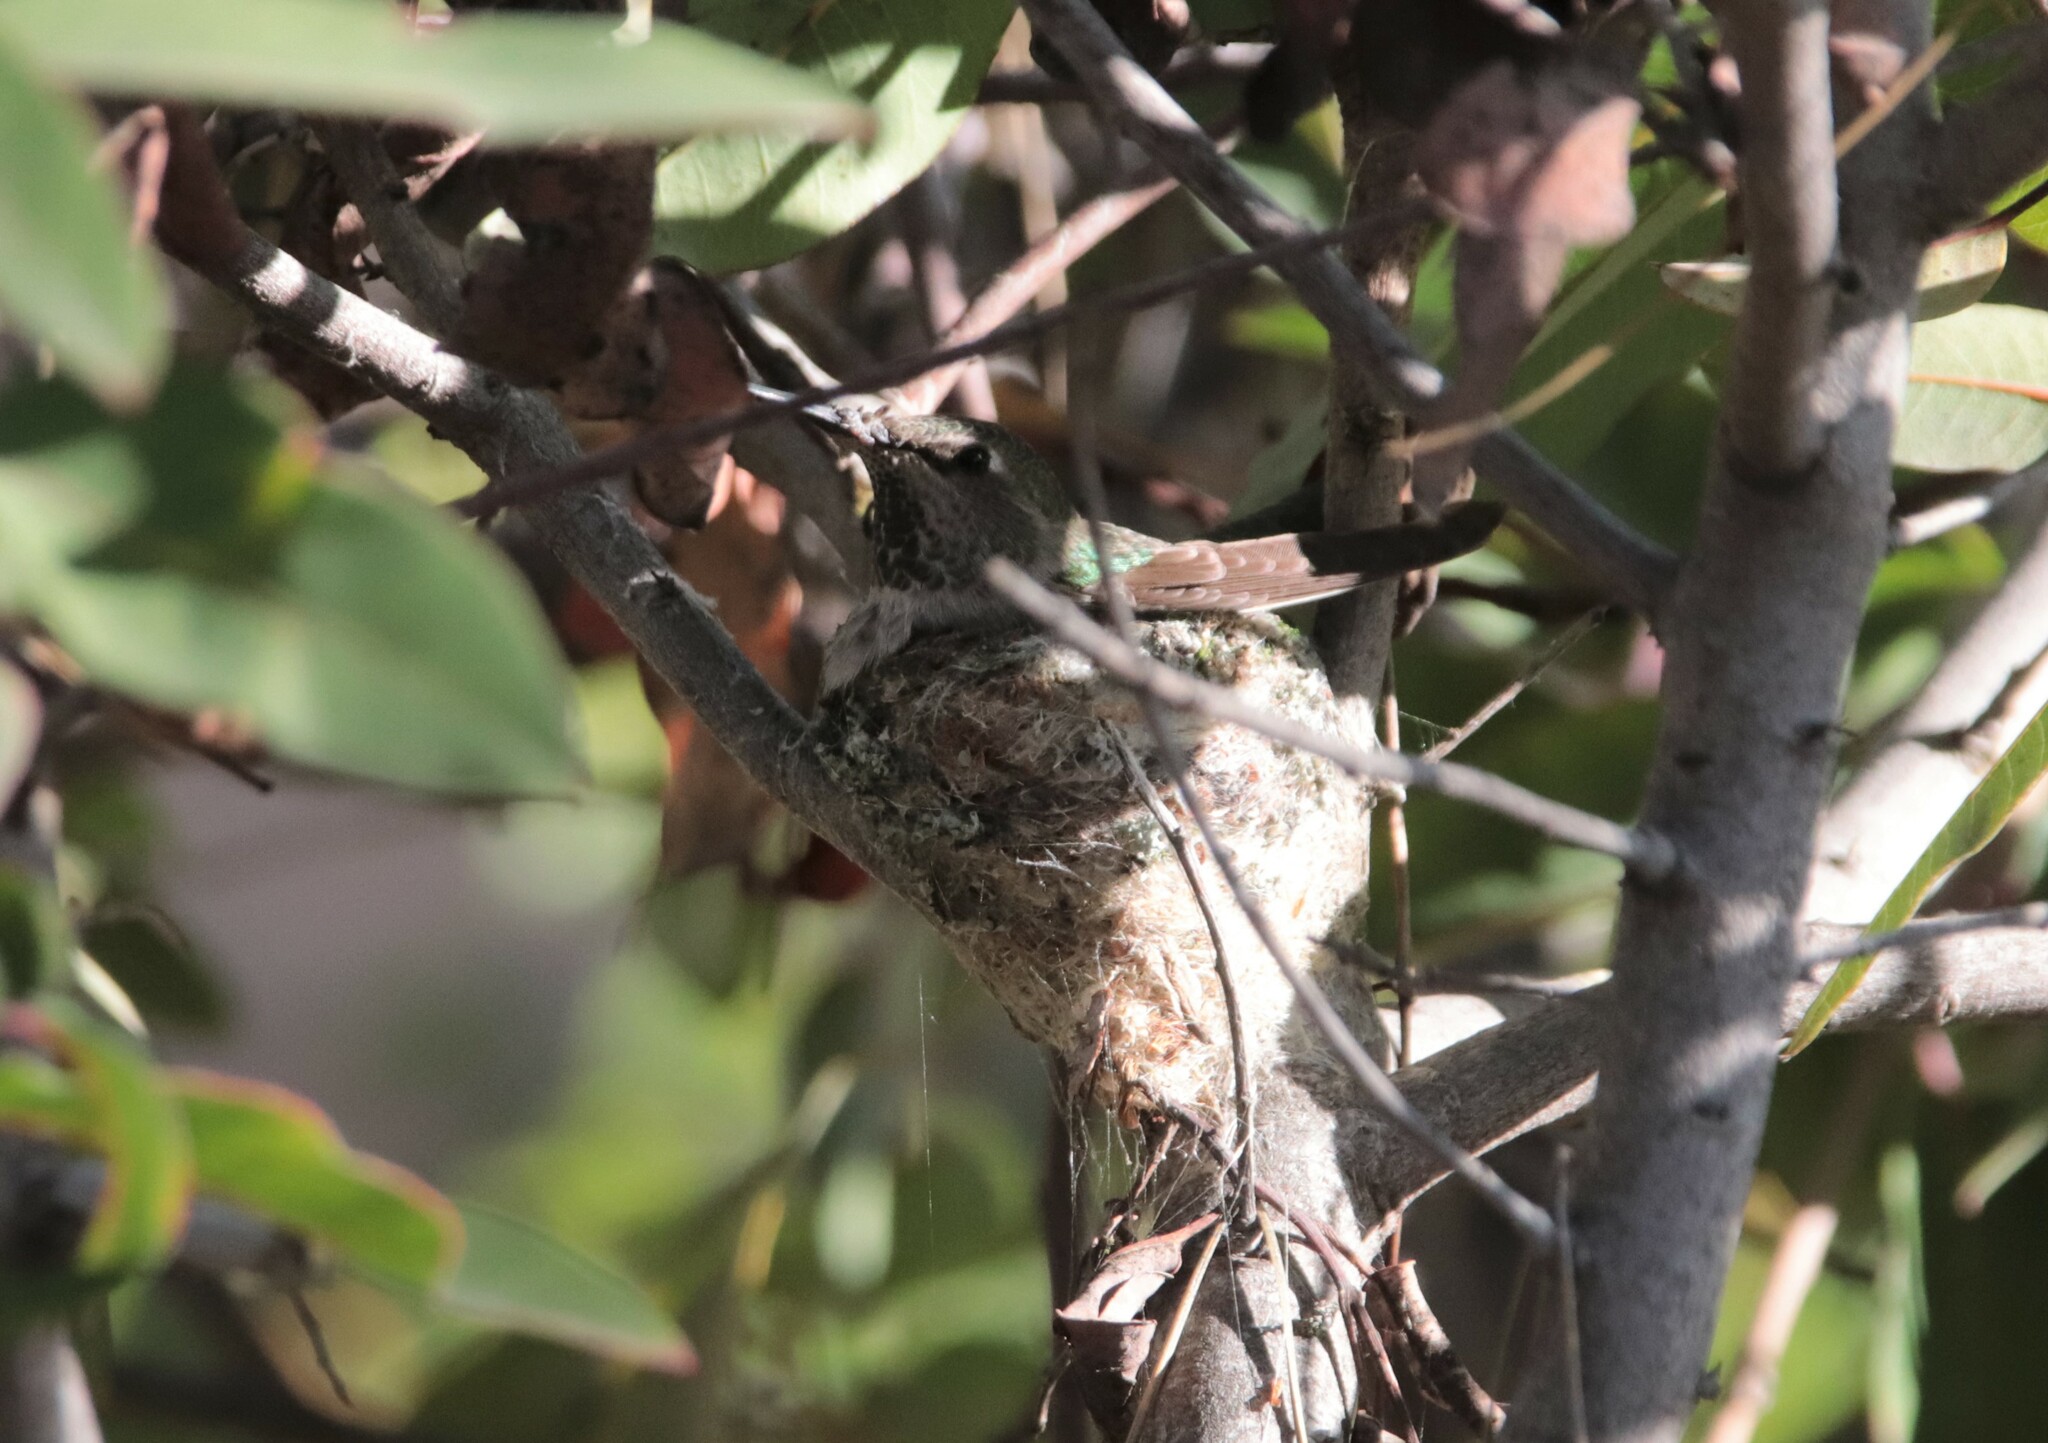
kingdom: Animalia
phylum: Chordata
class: Aves
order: Apodiformes
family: Trochilidae
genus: Calypte
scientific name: Calypte anna
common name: Anna's hummingbird
